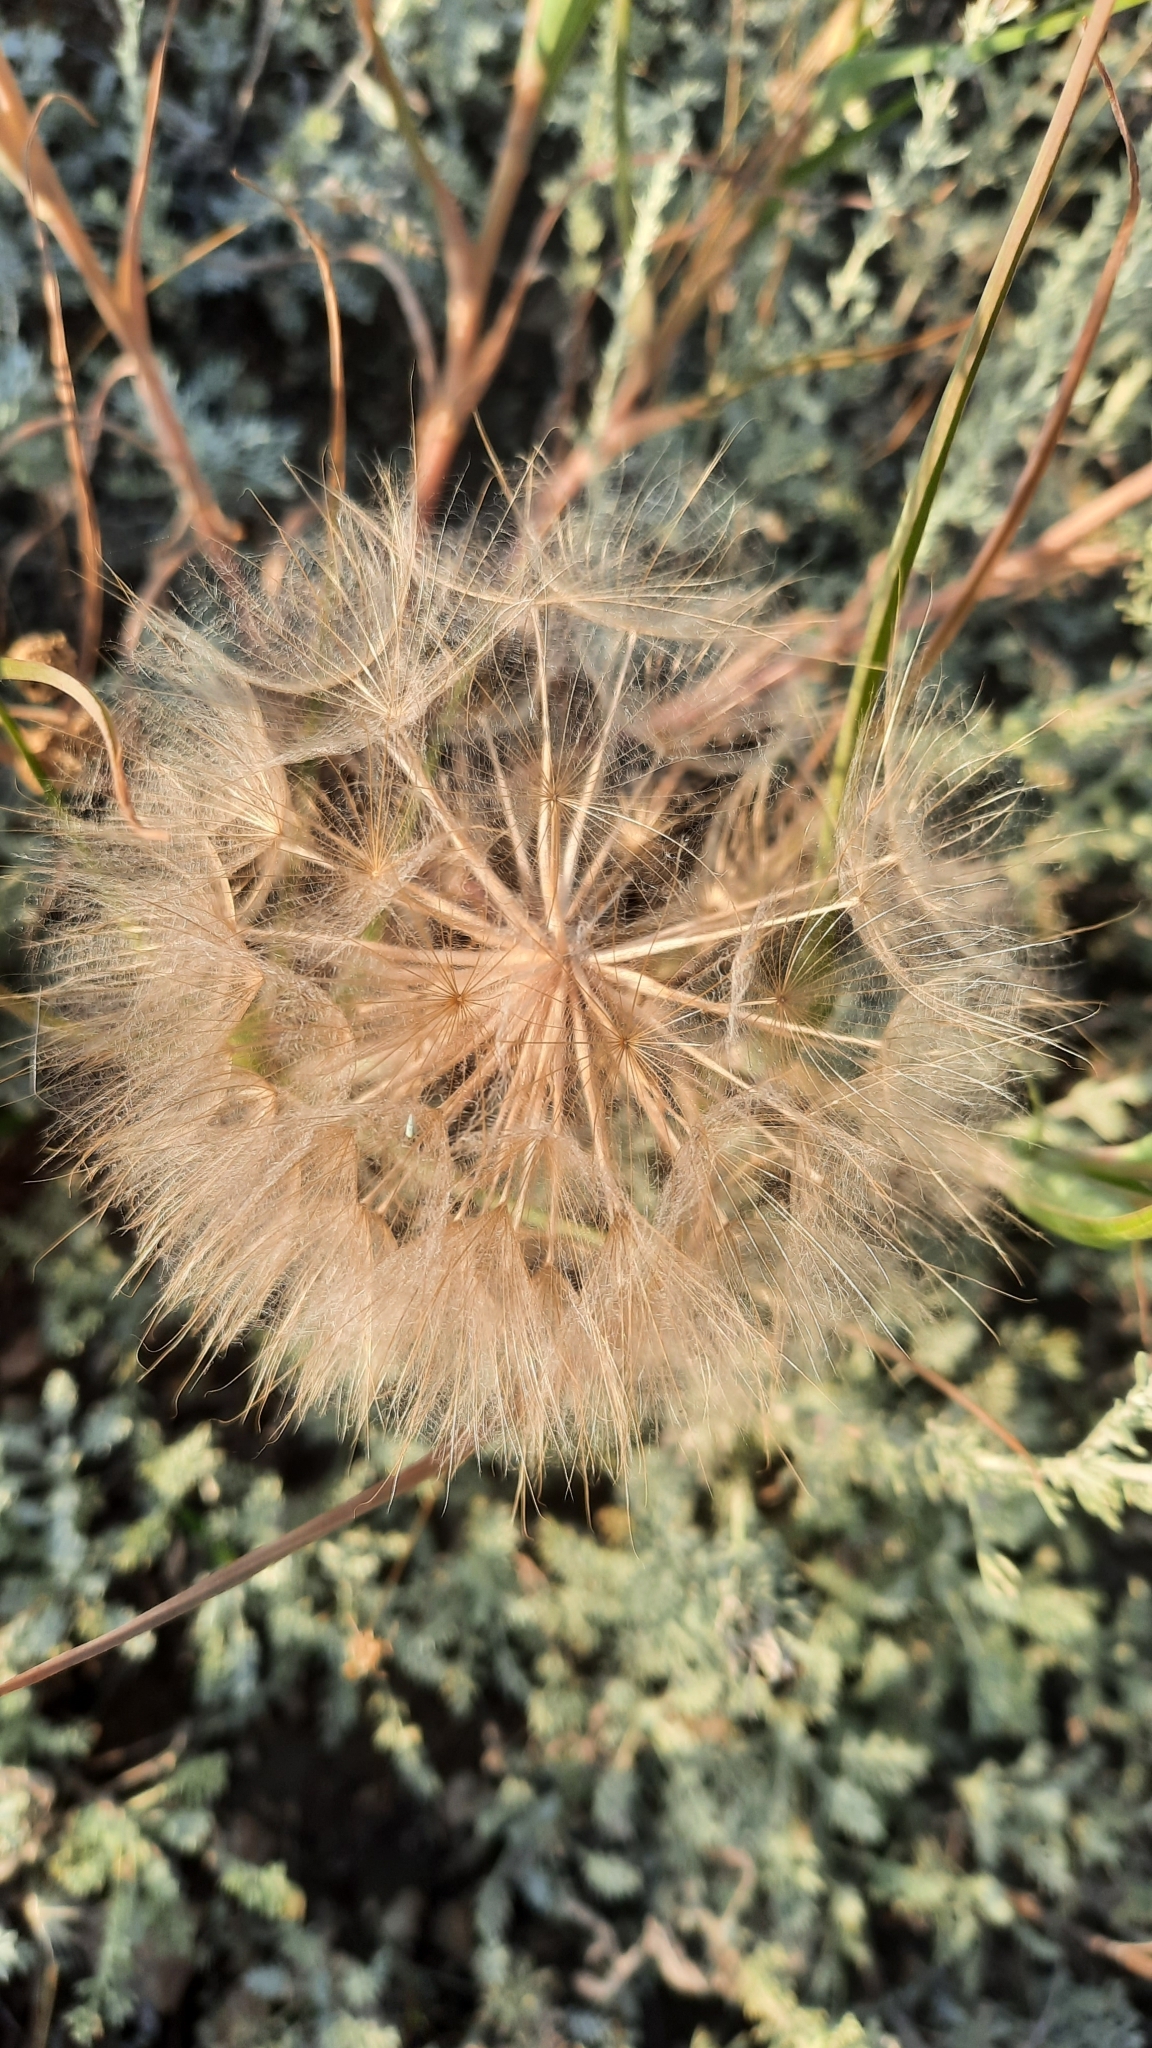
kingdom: Plantae
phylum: Tracheophyta
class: Magnoliopsida
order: Asterales
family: Asteraceae
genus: Tragopogon
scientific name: Tragopogon dubius
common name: Yellow salsify
